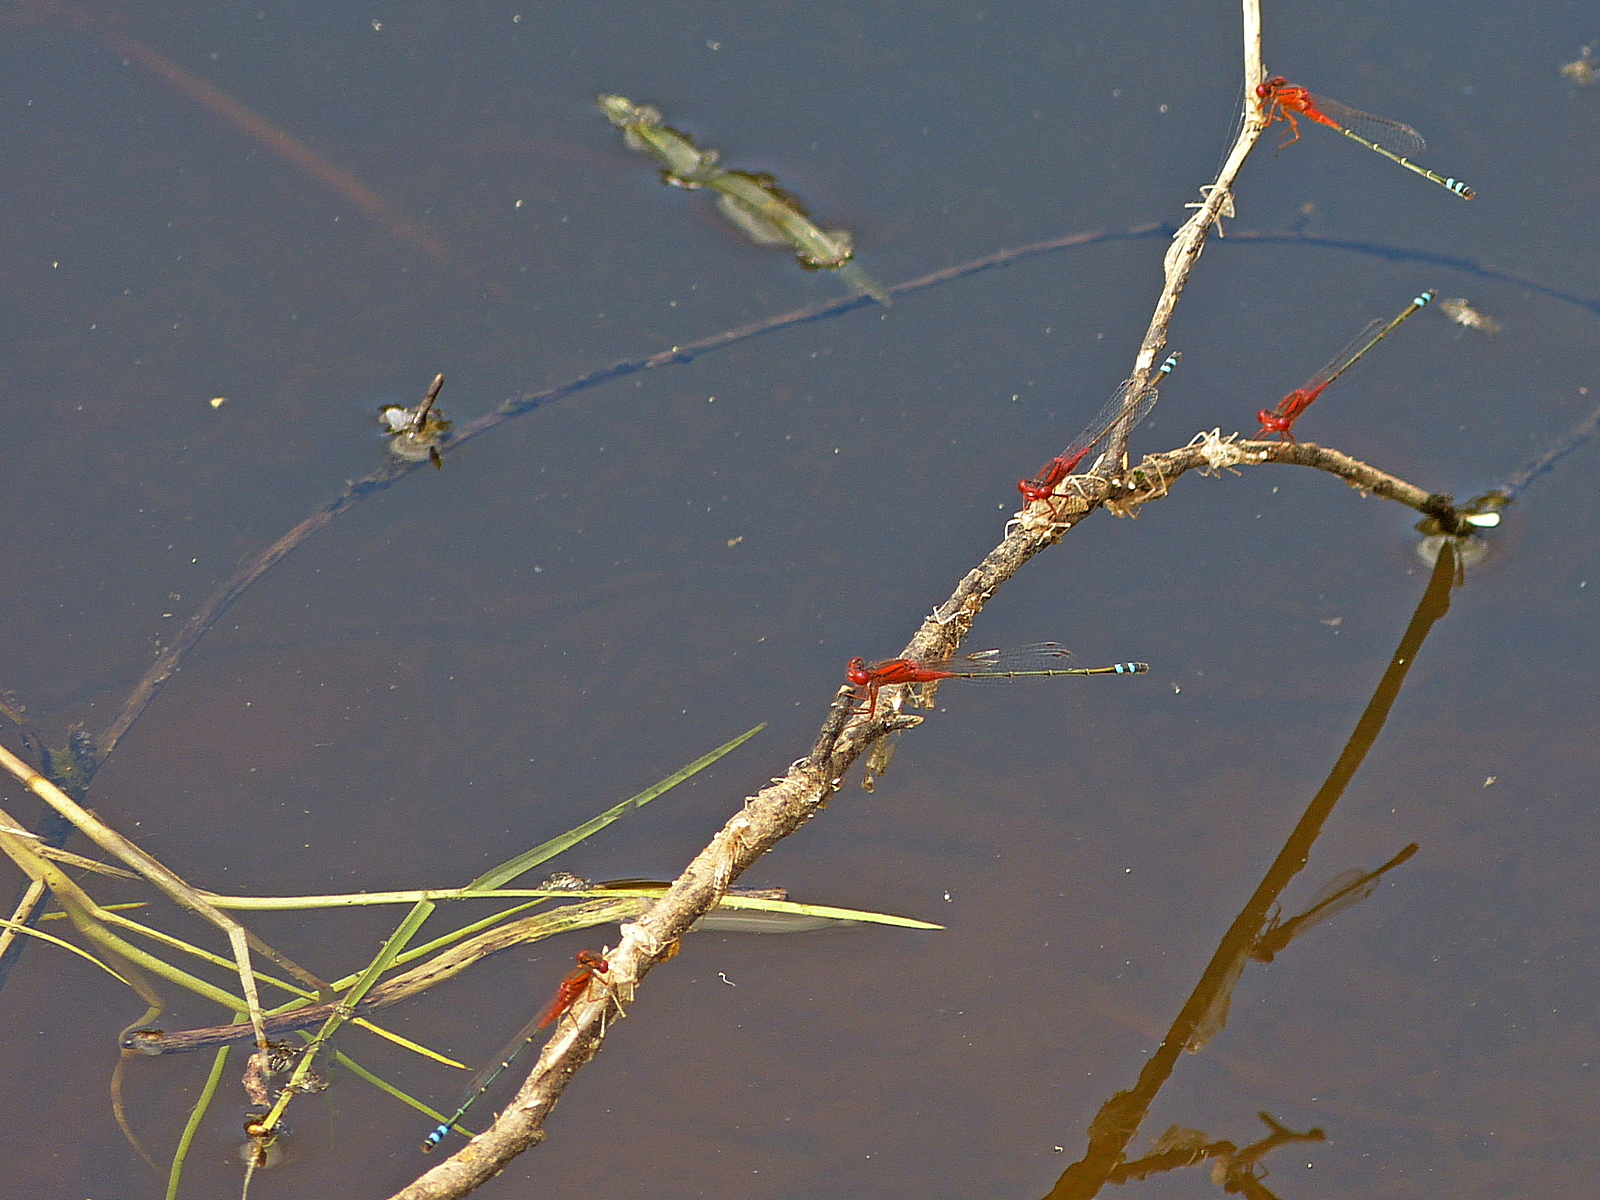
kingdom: Animalia
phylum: Arthropoda
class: Insecta
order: Odonata
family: Coenagrionidae
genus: Xanthagrion
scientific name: Xanthagrion erythroneurum
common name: Red and blue damsel
